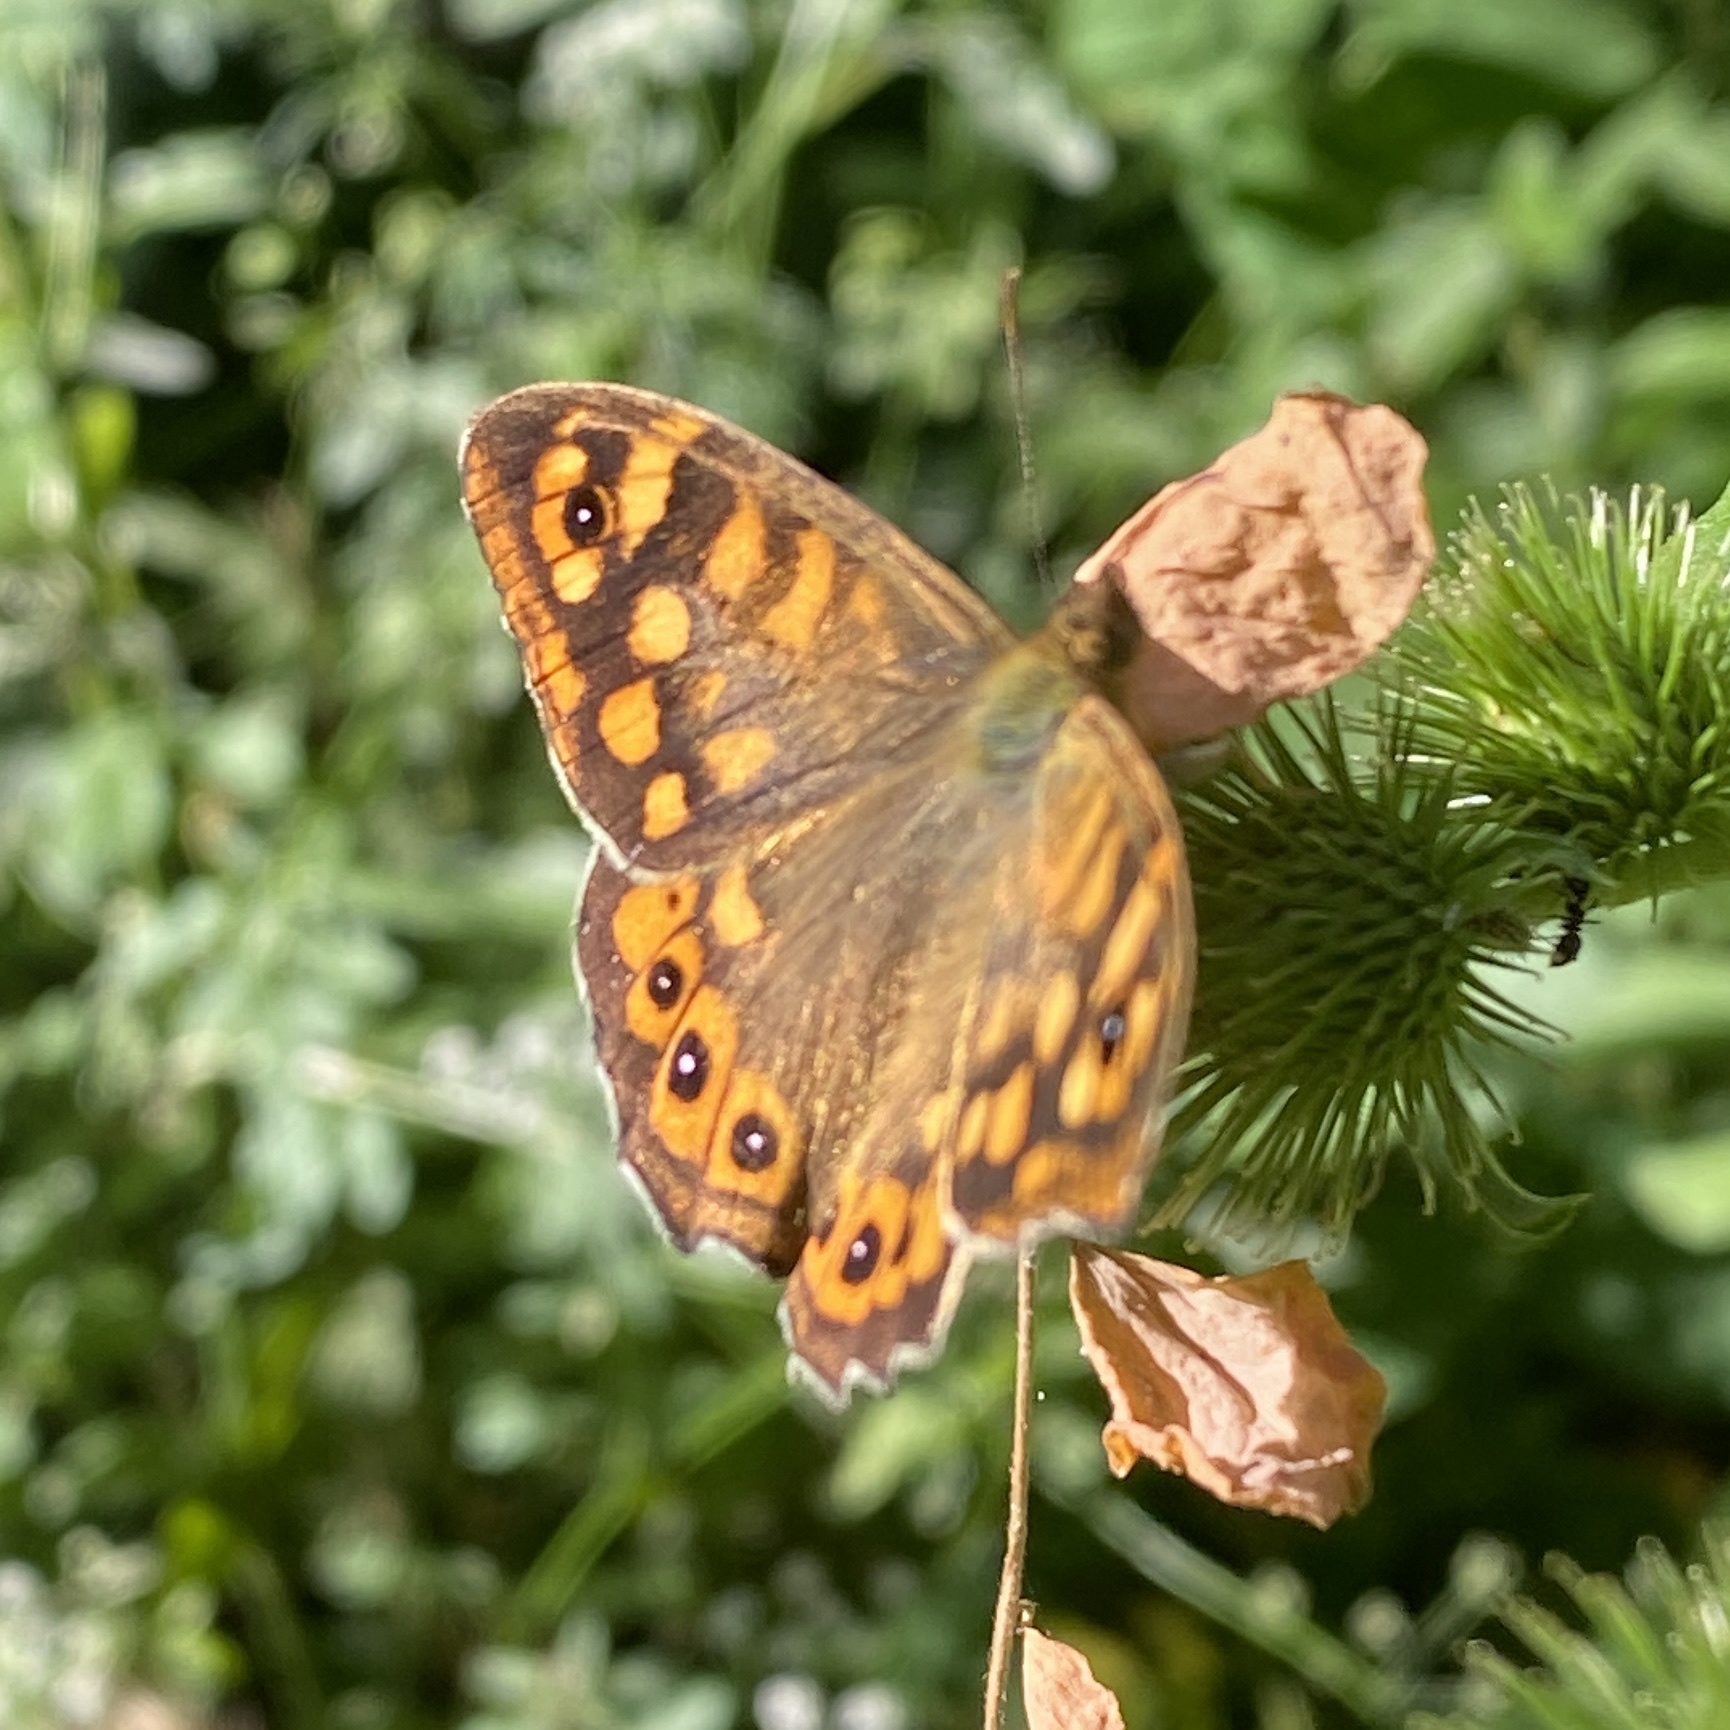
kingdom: Animalia
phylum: Arthropoda
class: Insecta
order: Lepidoptera
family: Nymphalidae
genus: Pararge
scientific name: Pararge aegeria
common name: Speckled wood
